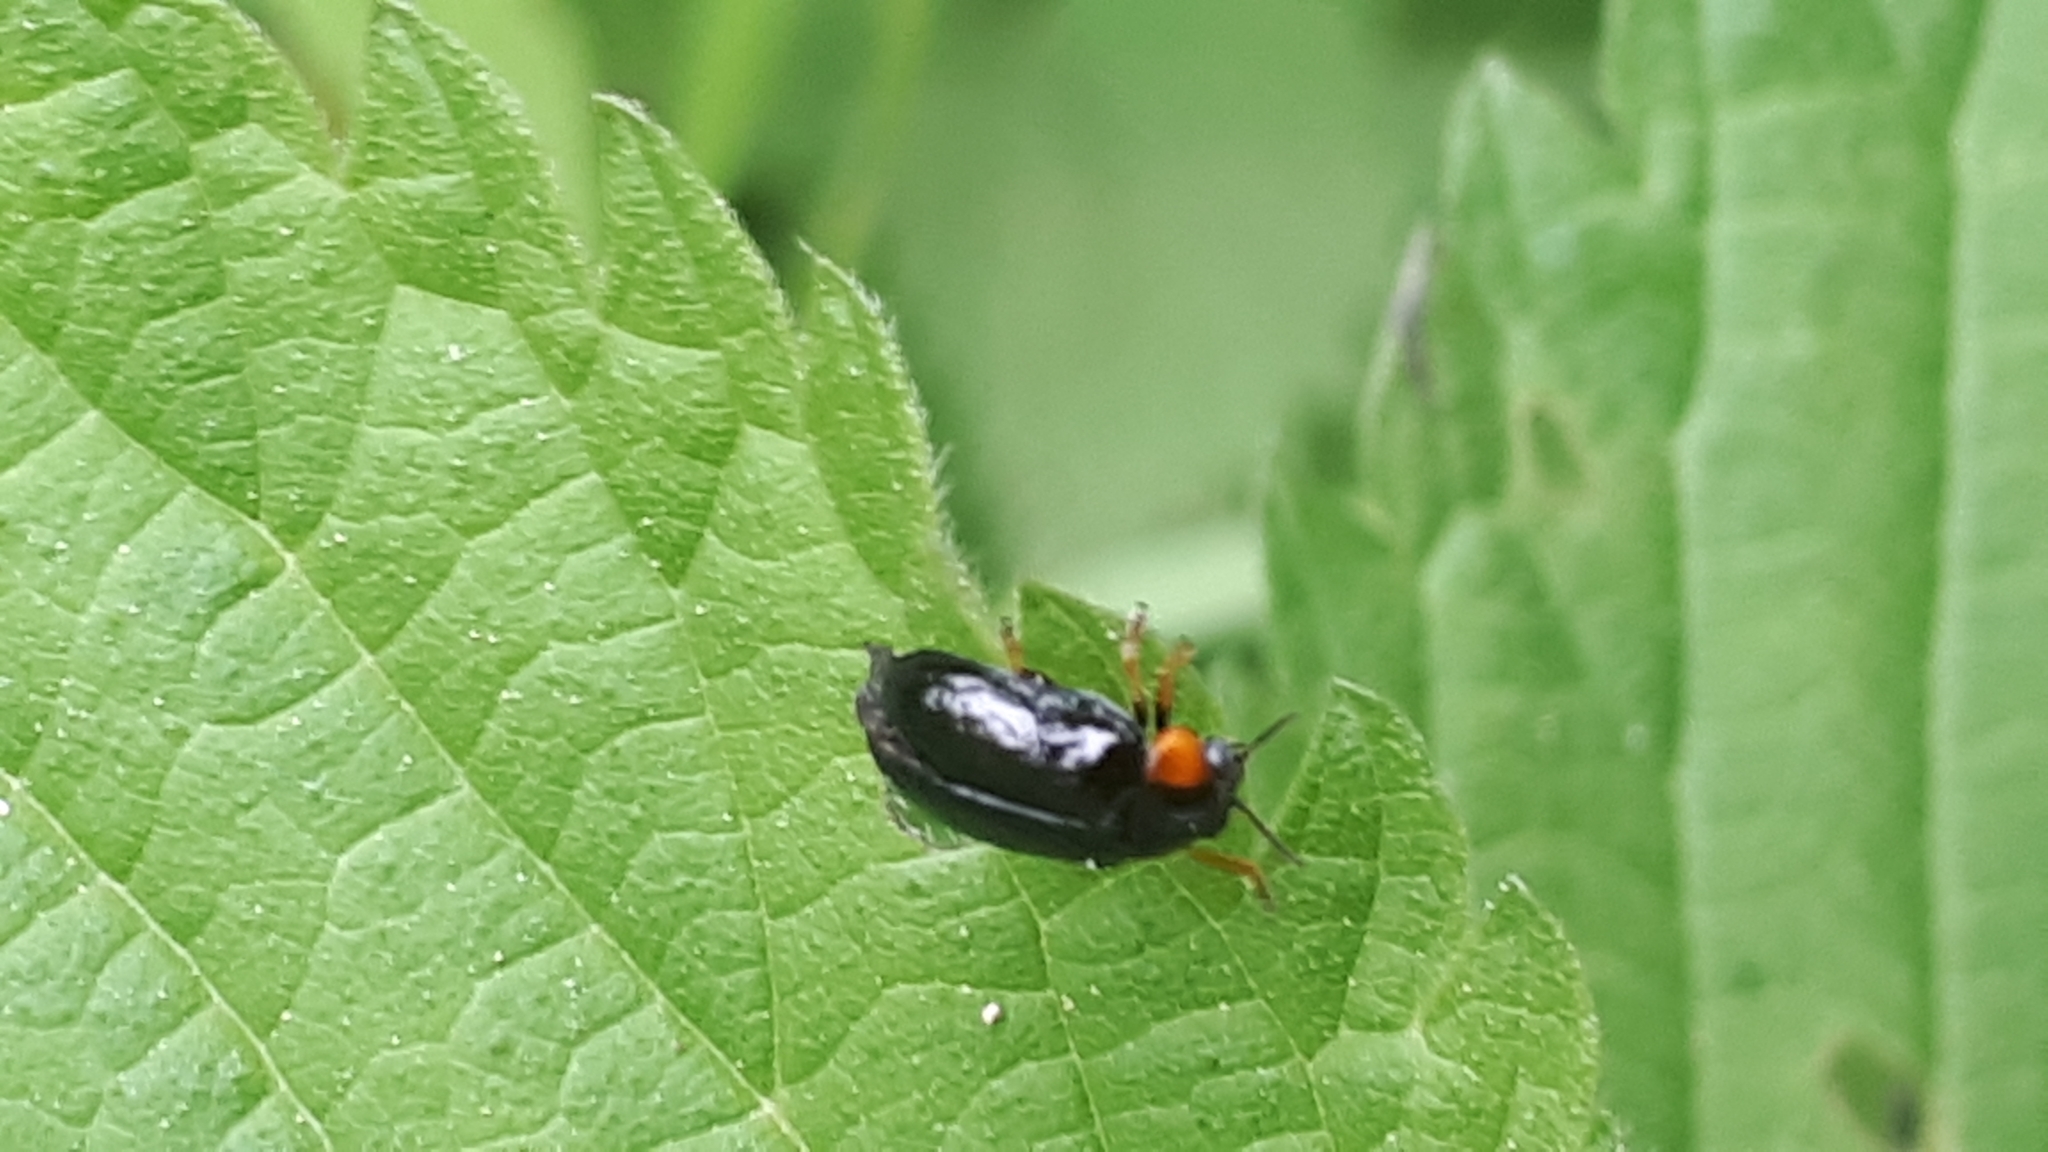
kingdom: Animalia
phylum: Arthropoda
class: Insecta
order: Coleoptera
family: Chrysomelidae
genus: Smaragdina
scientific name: Smaragdina aurita
